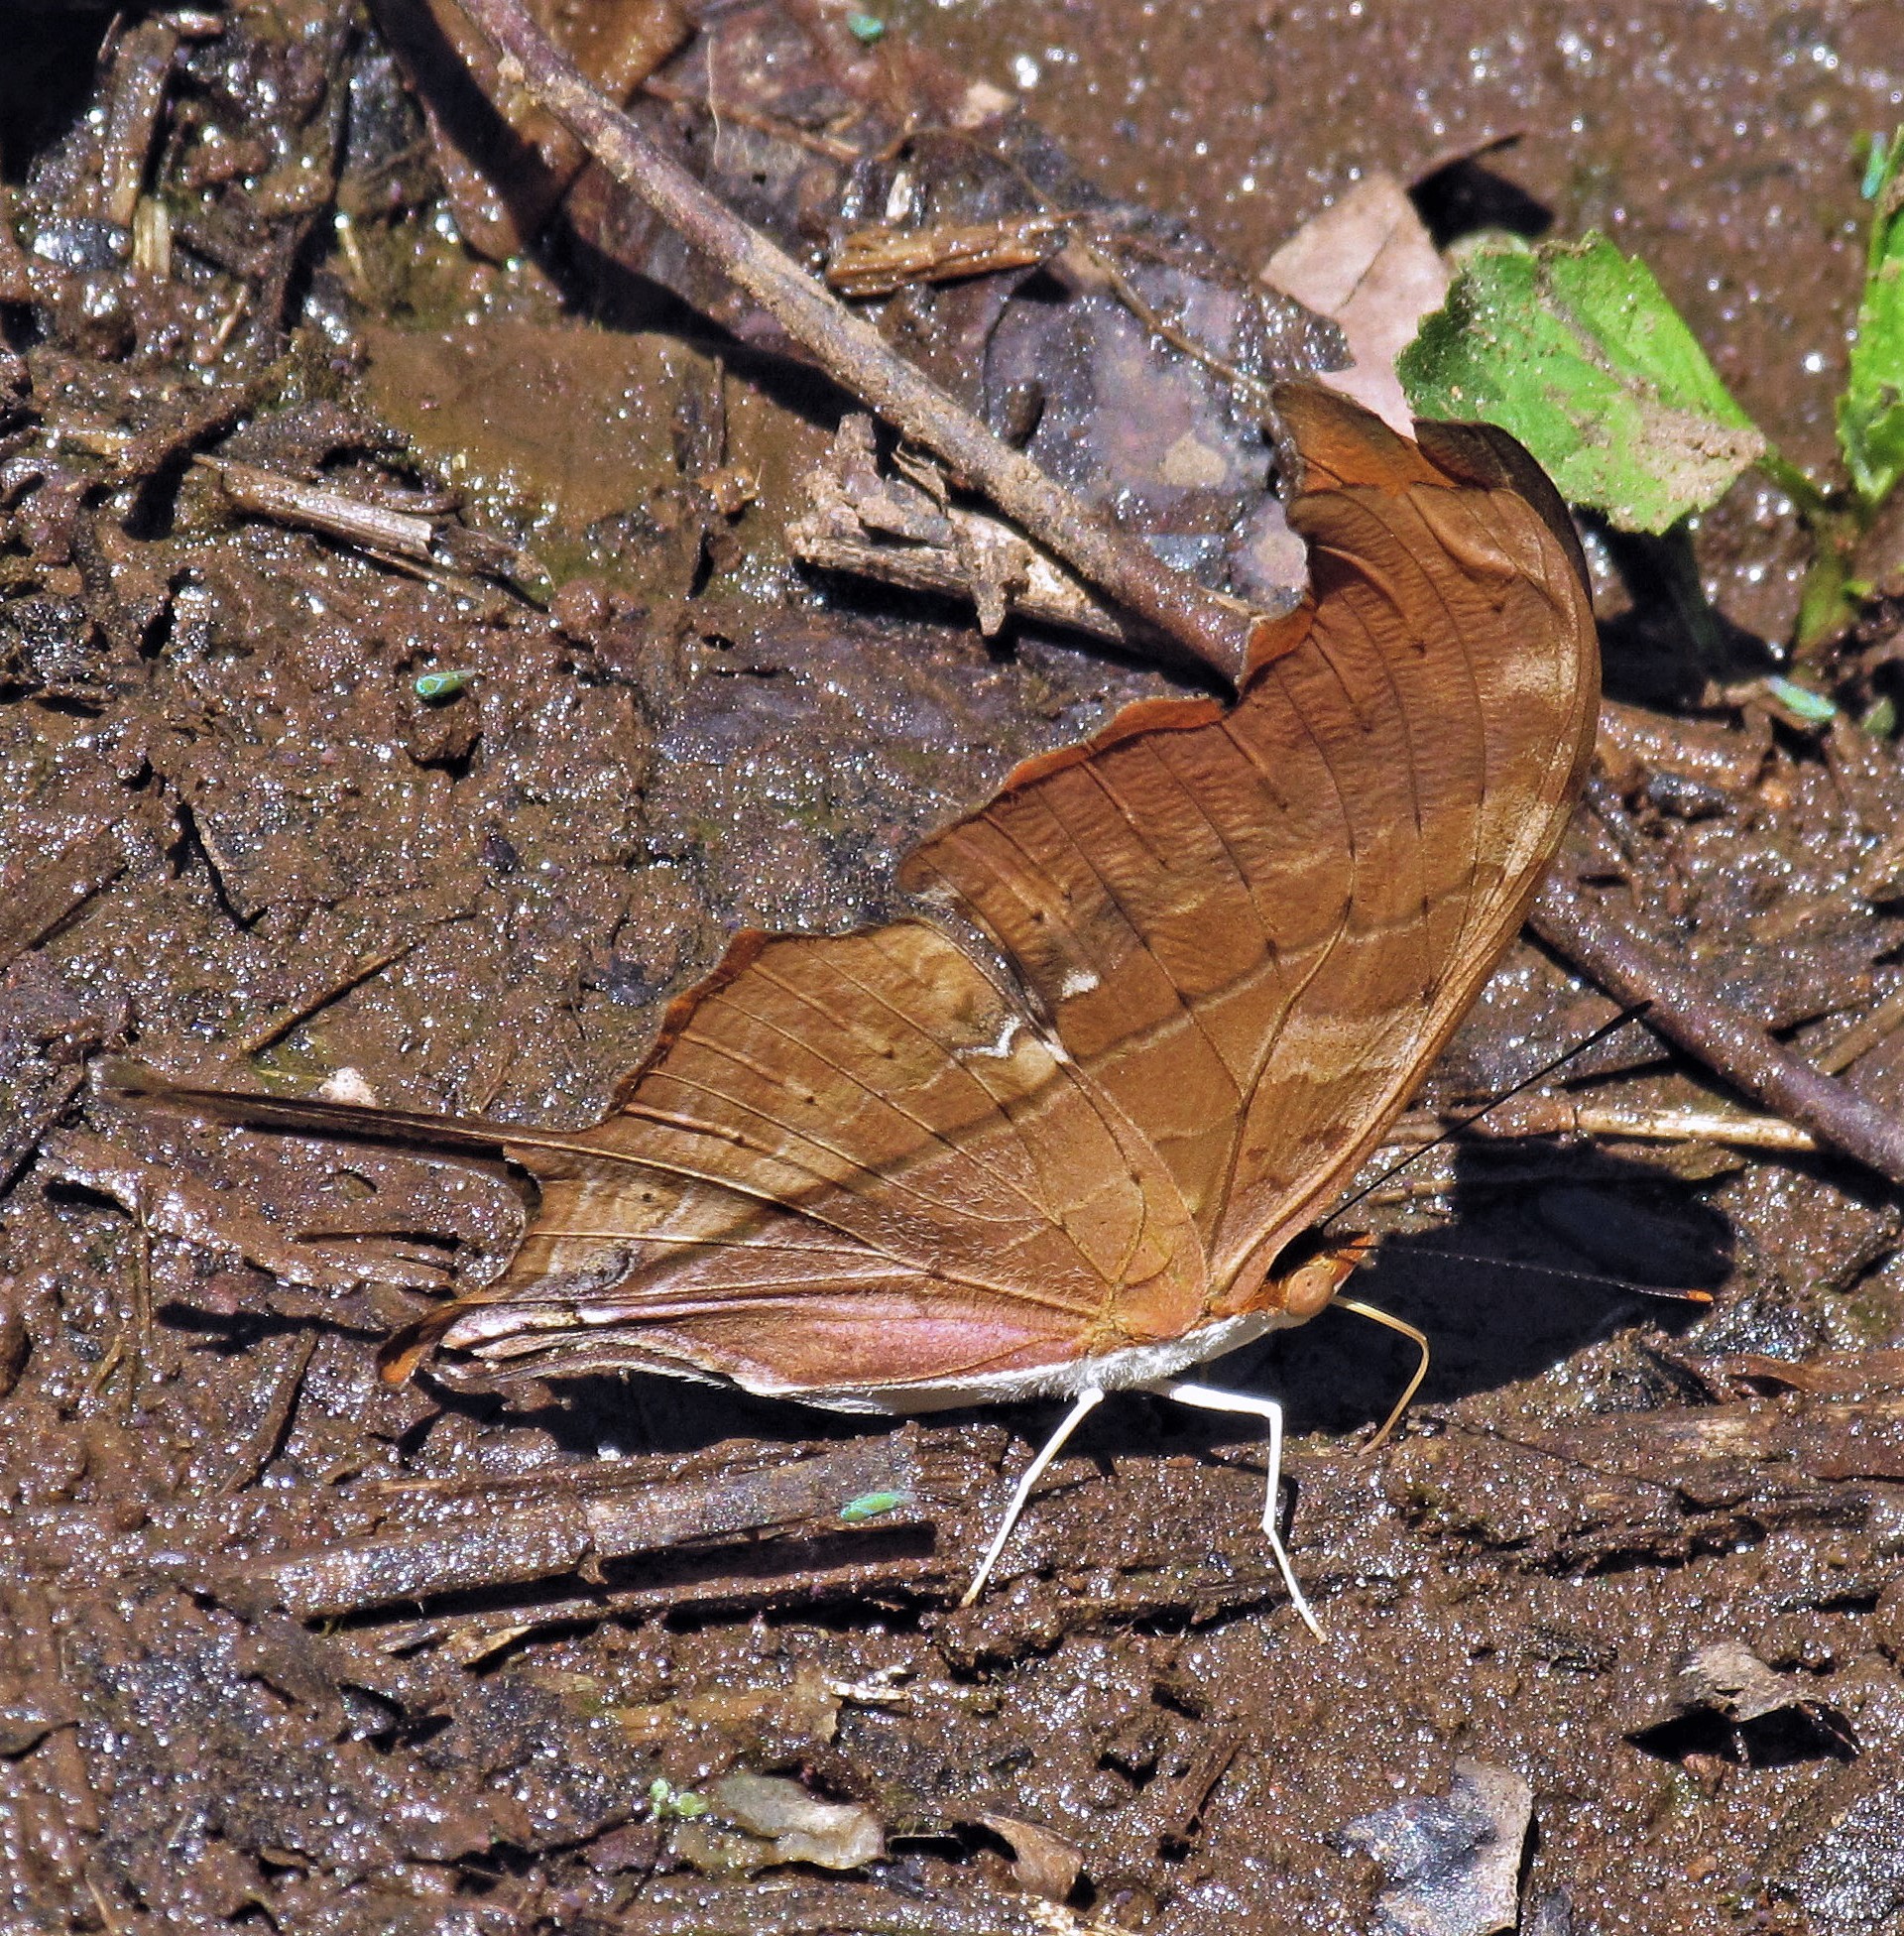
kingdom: Animalia
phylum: Arthropoda
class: Insecta
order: Lepidoptera
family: Nymphalidae
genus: Marpesia
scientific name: Marpesia petreus
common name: Red dagger wing
